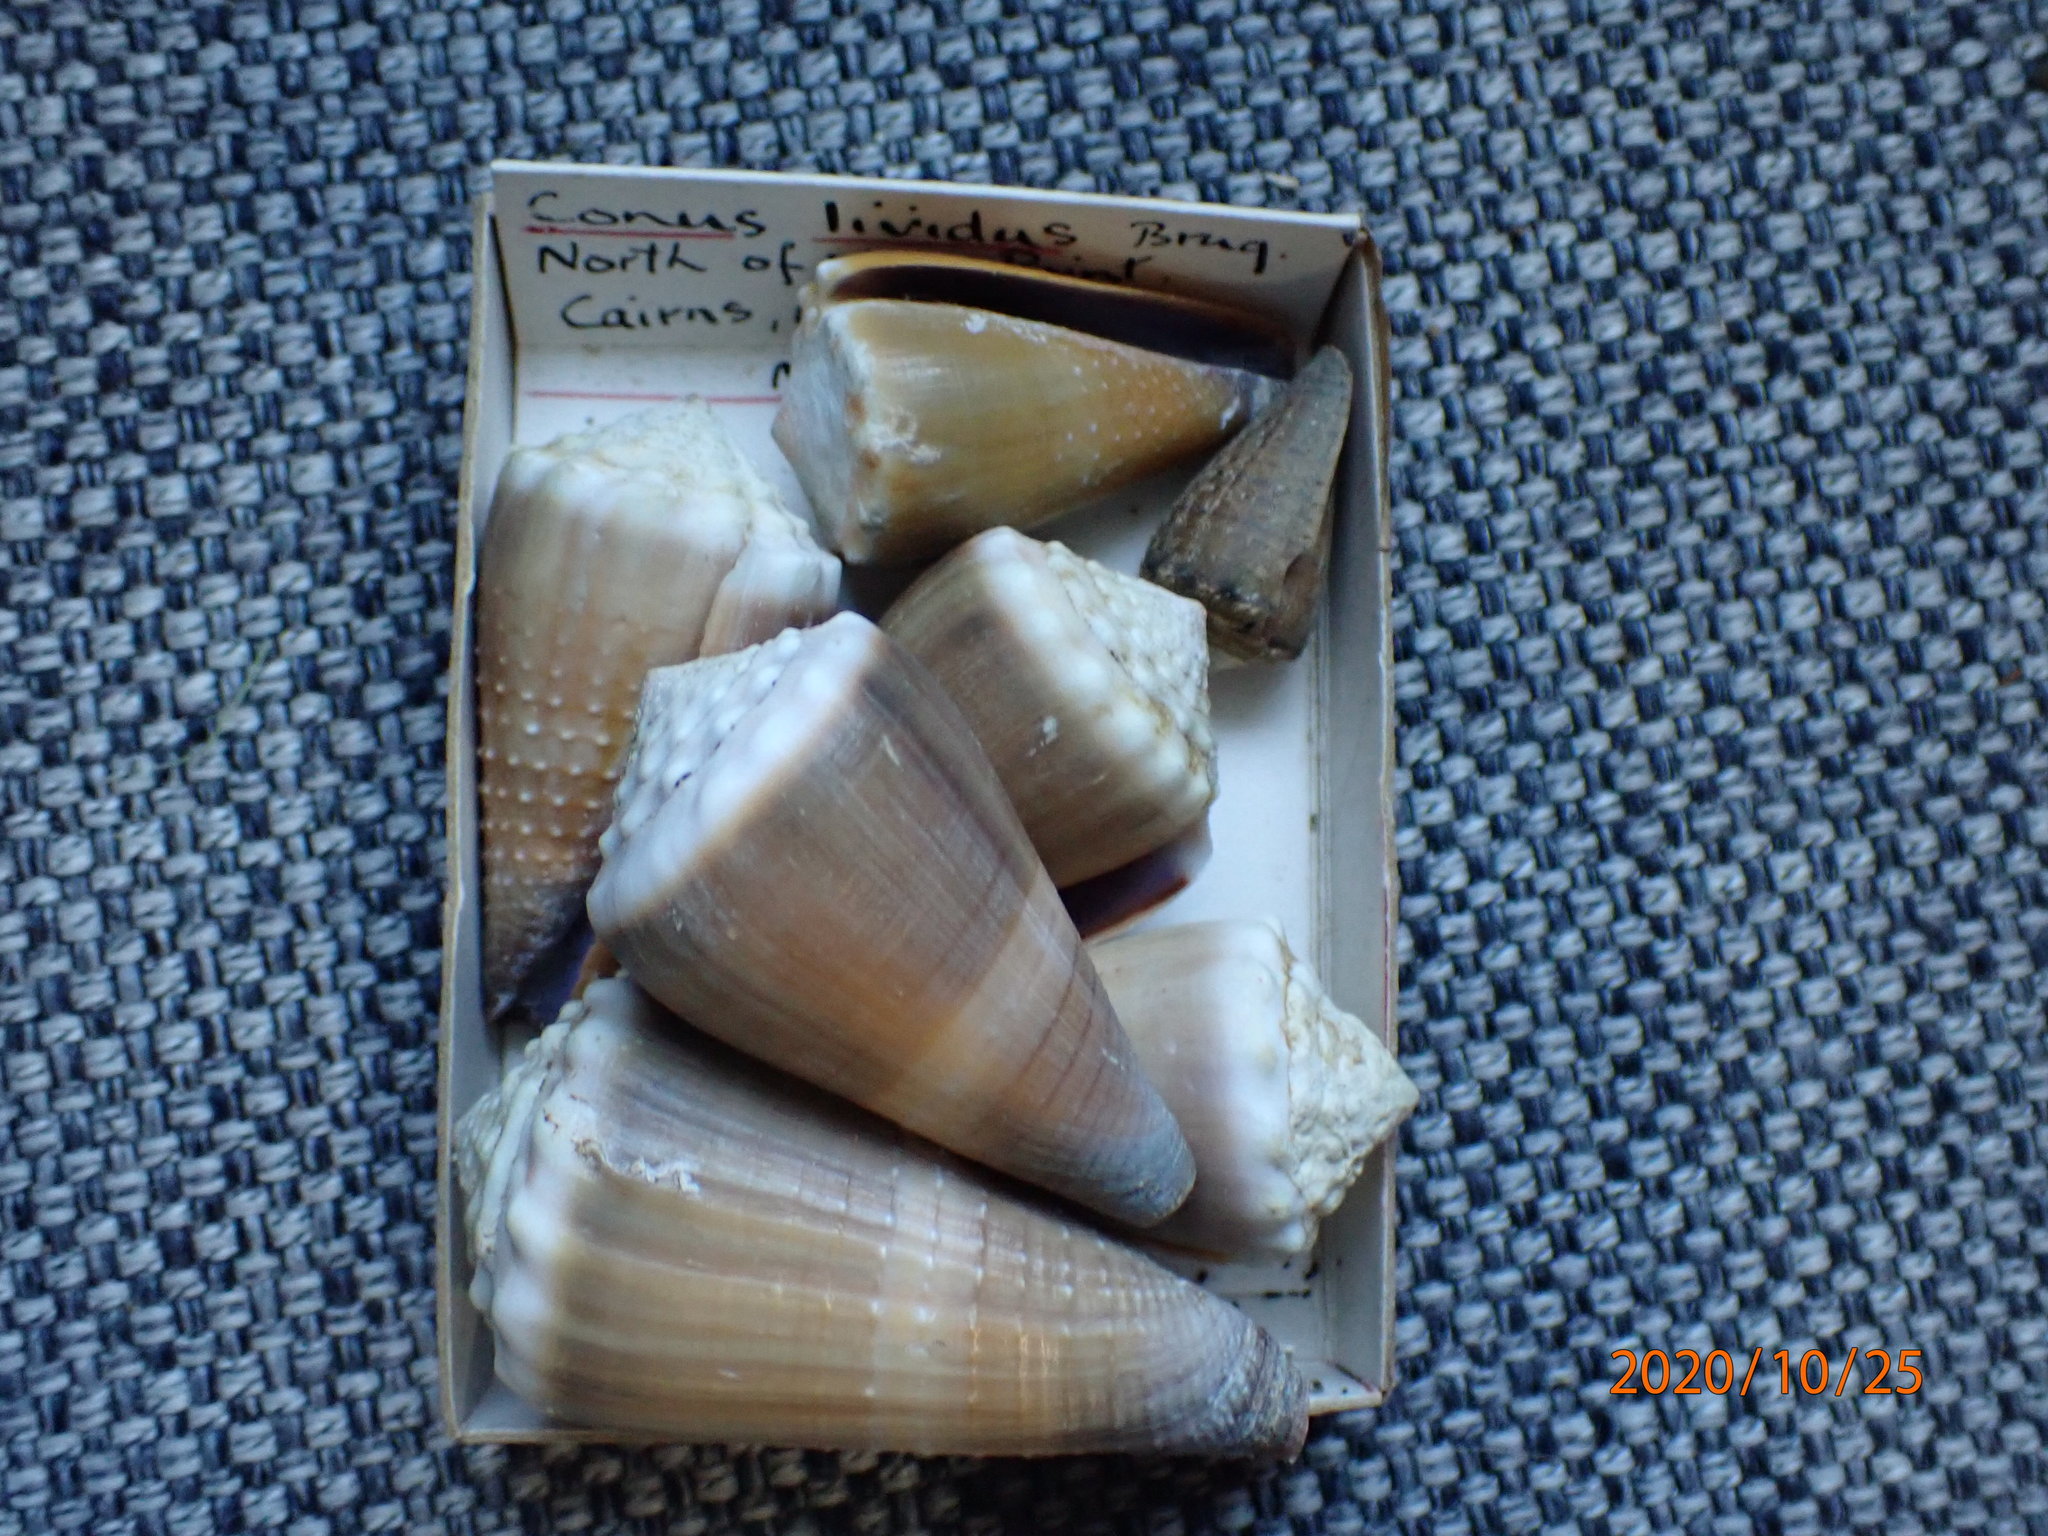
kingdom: Animalia
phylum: Mollusca
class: Gastropoda
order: Neogastropoda
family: Conidae
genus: Conus
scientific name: Conus lividus
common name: Livid cone
